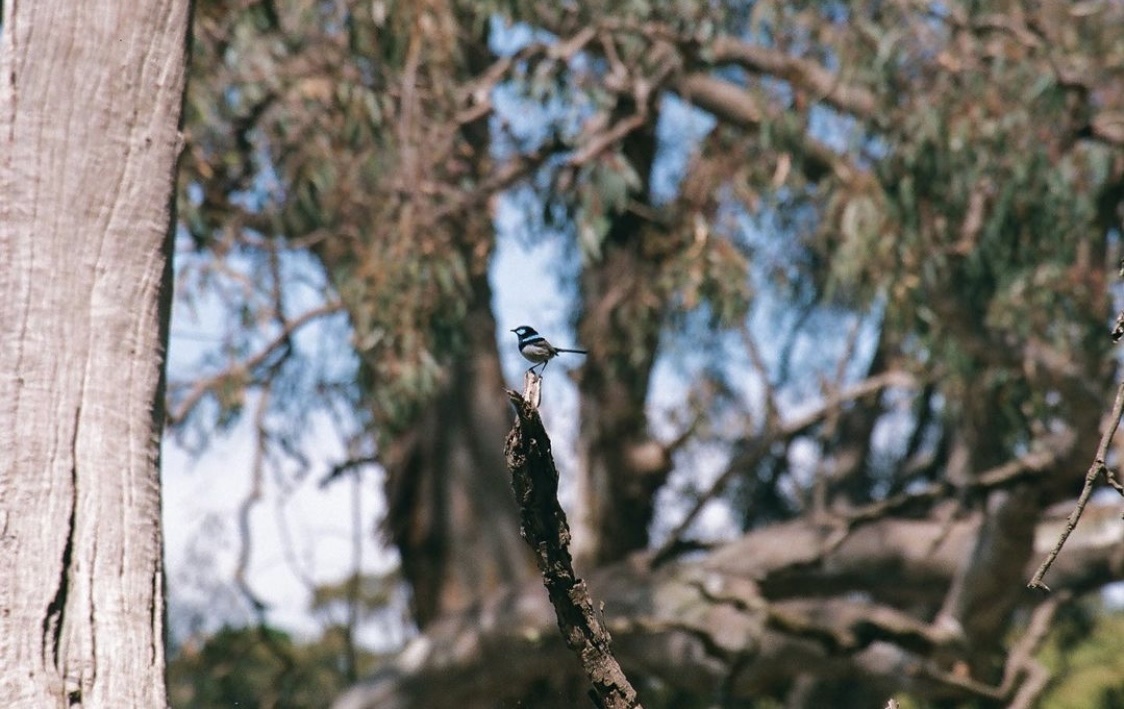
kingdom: Animalia
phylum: Chordata
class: Aves
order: Passeriformes
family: Maluridae
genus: Malurus
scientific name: Malurus cyaneus
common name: Superb fairywren
